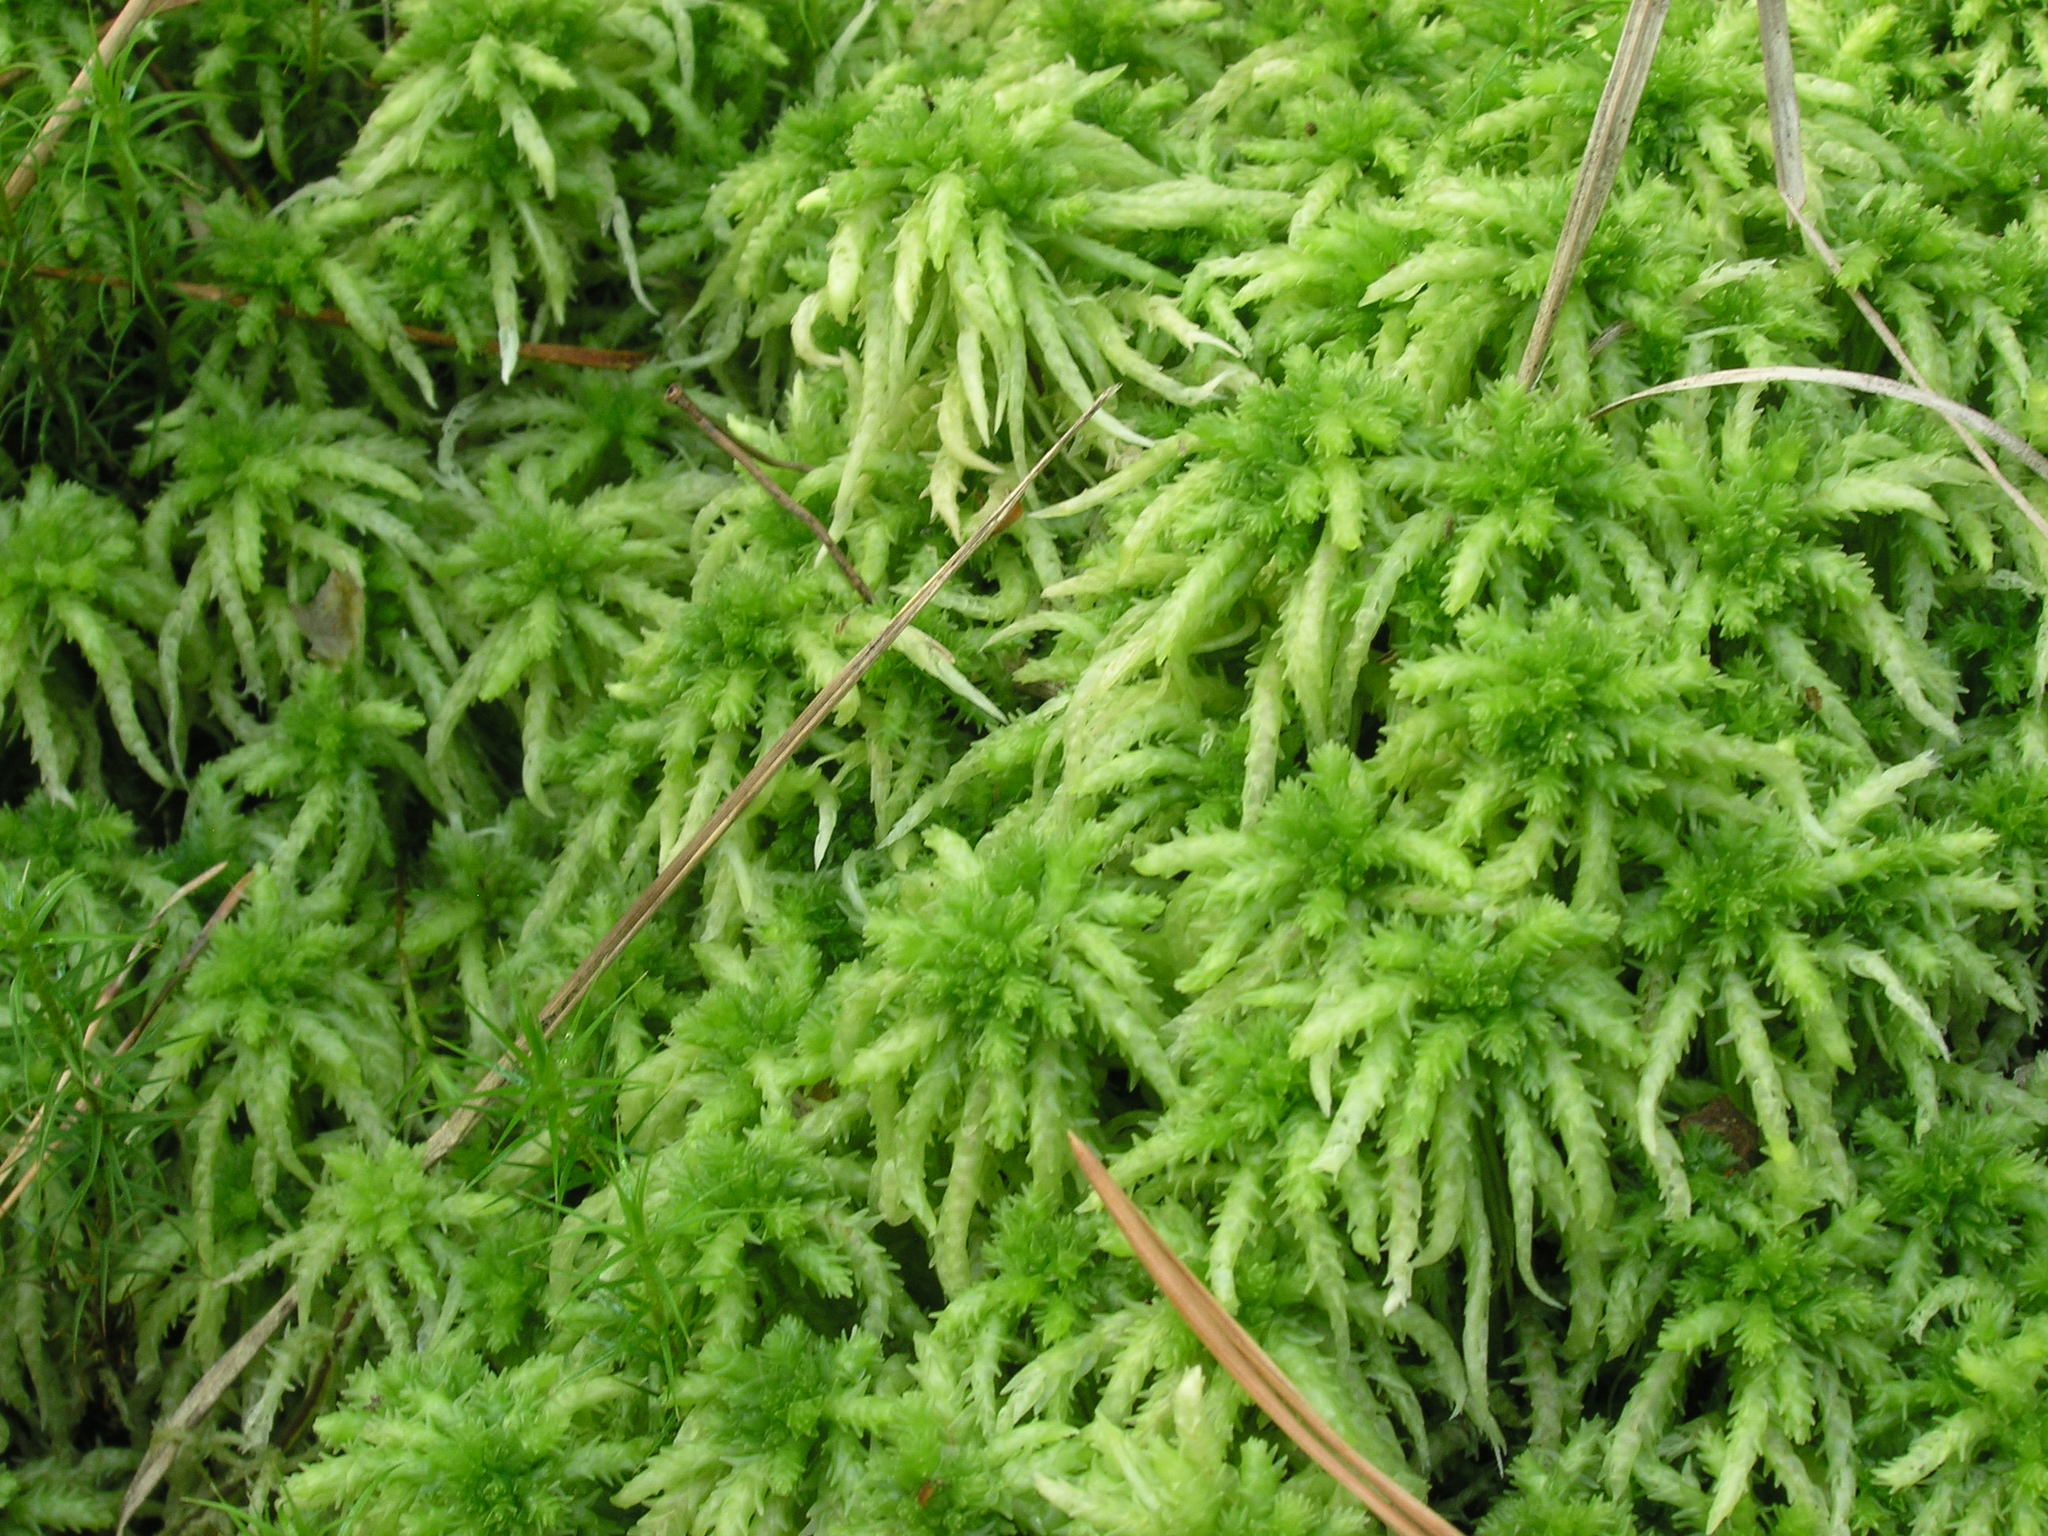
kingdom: Plantae
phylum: Bryophyta
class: Sphagnopsida
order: Sphagnales
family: Sphagnaceae
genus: Sphagnum
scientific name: Sphagnum squarrosum
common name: Shaggy peat moss
